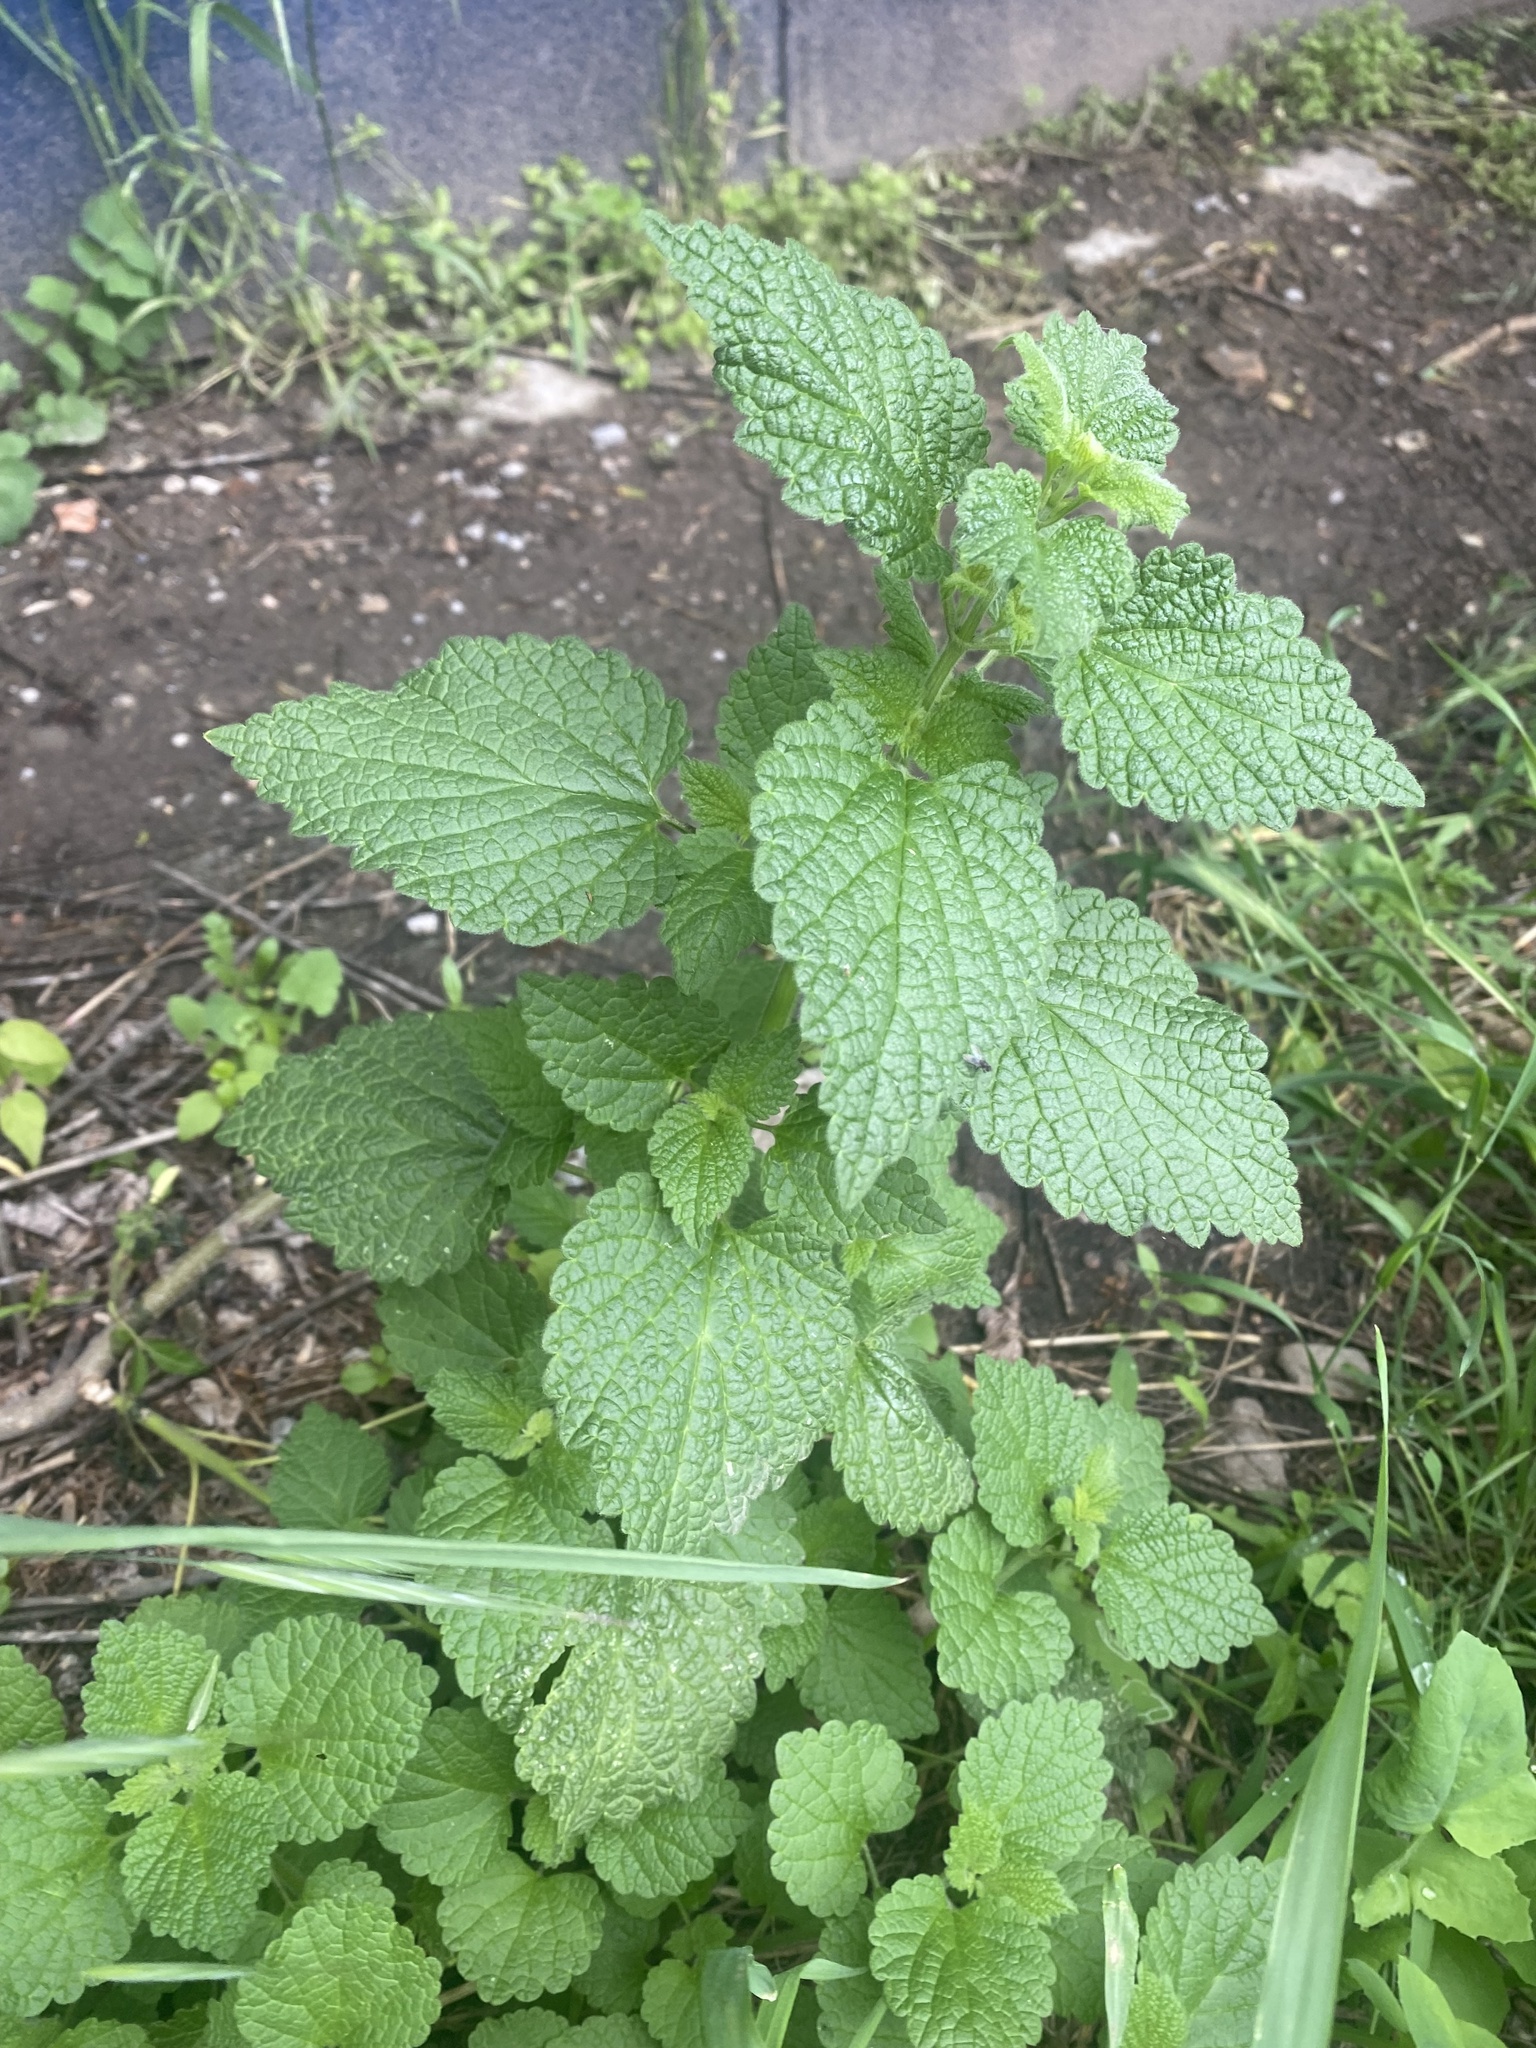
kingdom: Plantae
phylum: Tracheophyta
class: Magnoliopsida
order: Lamiales
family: Lamiaceae
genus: Ballota
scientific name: Ballota nigra
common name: Black horehound
